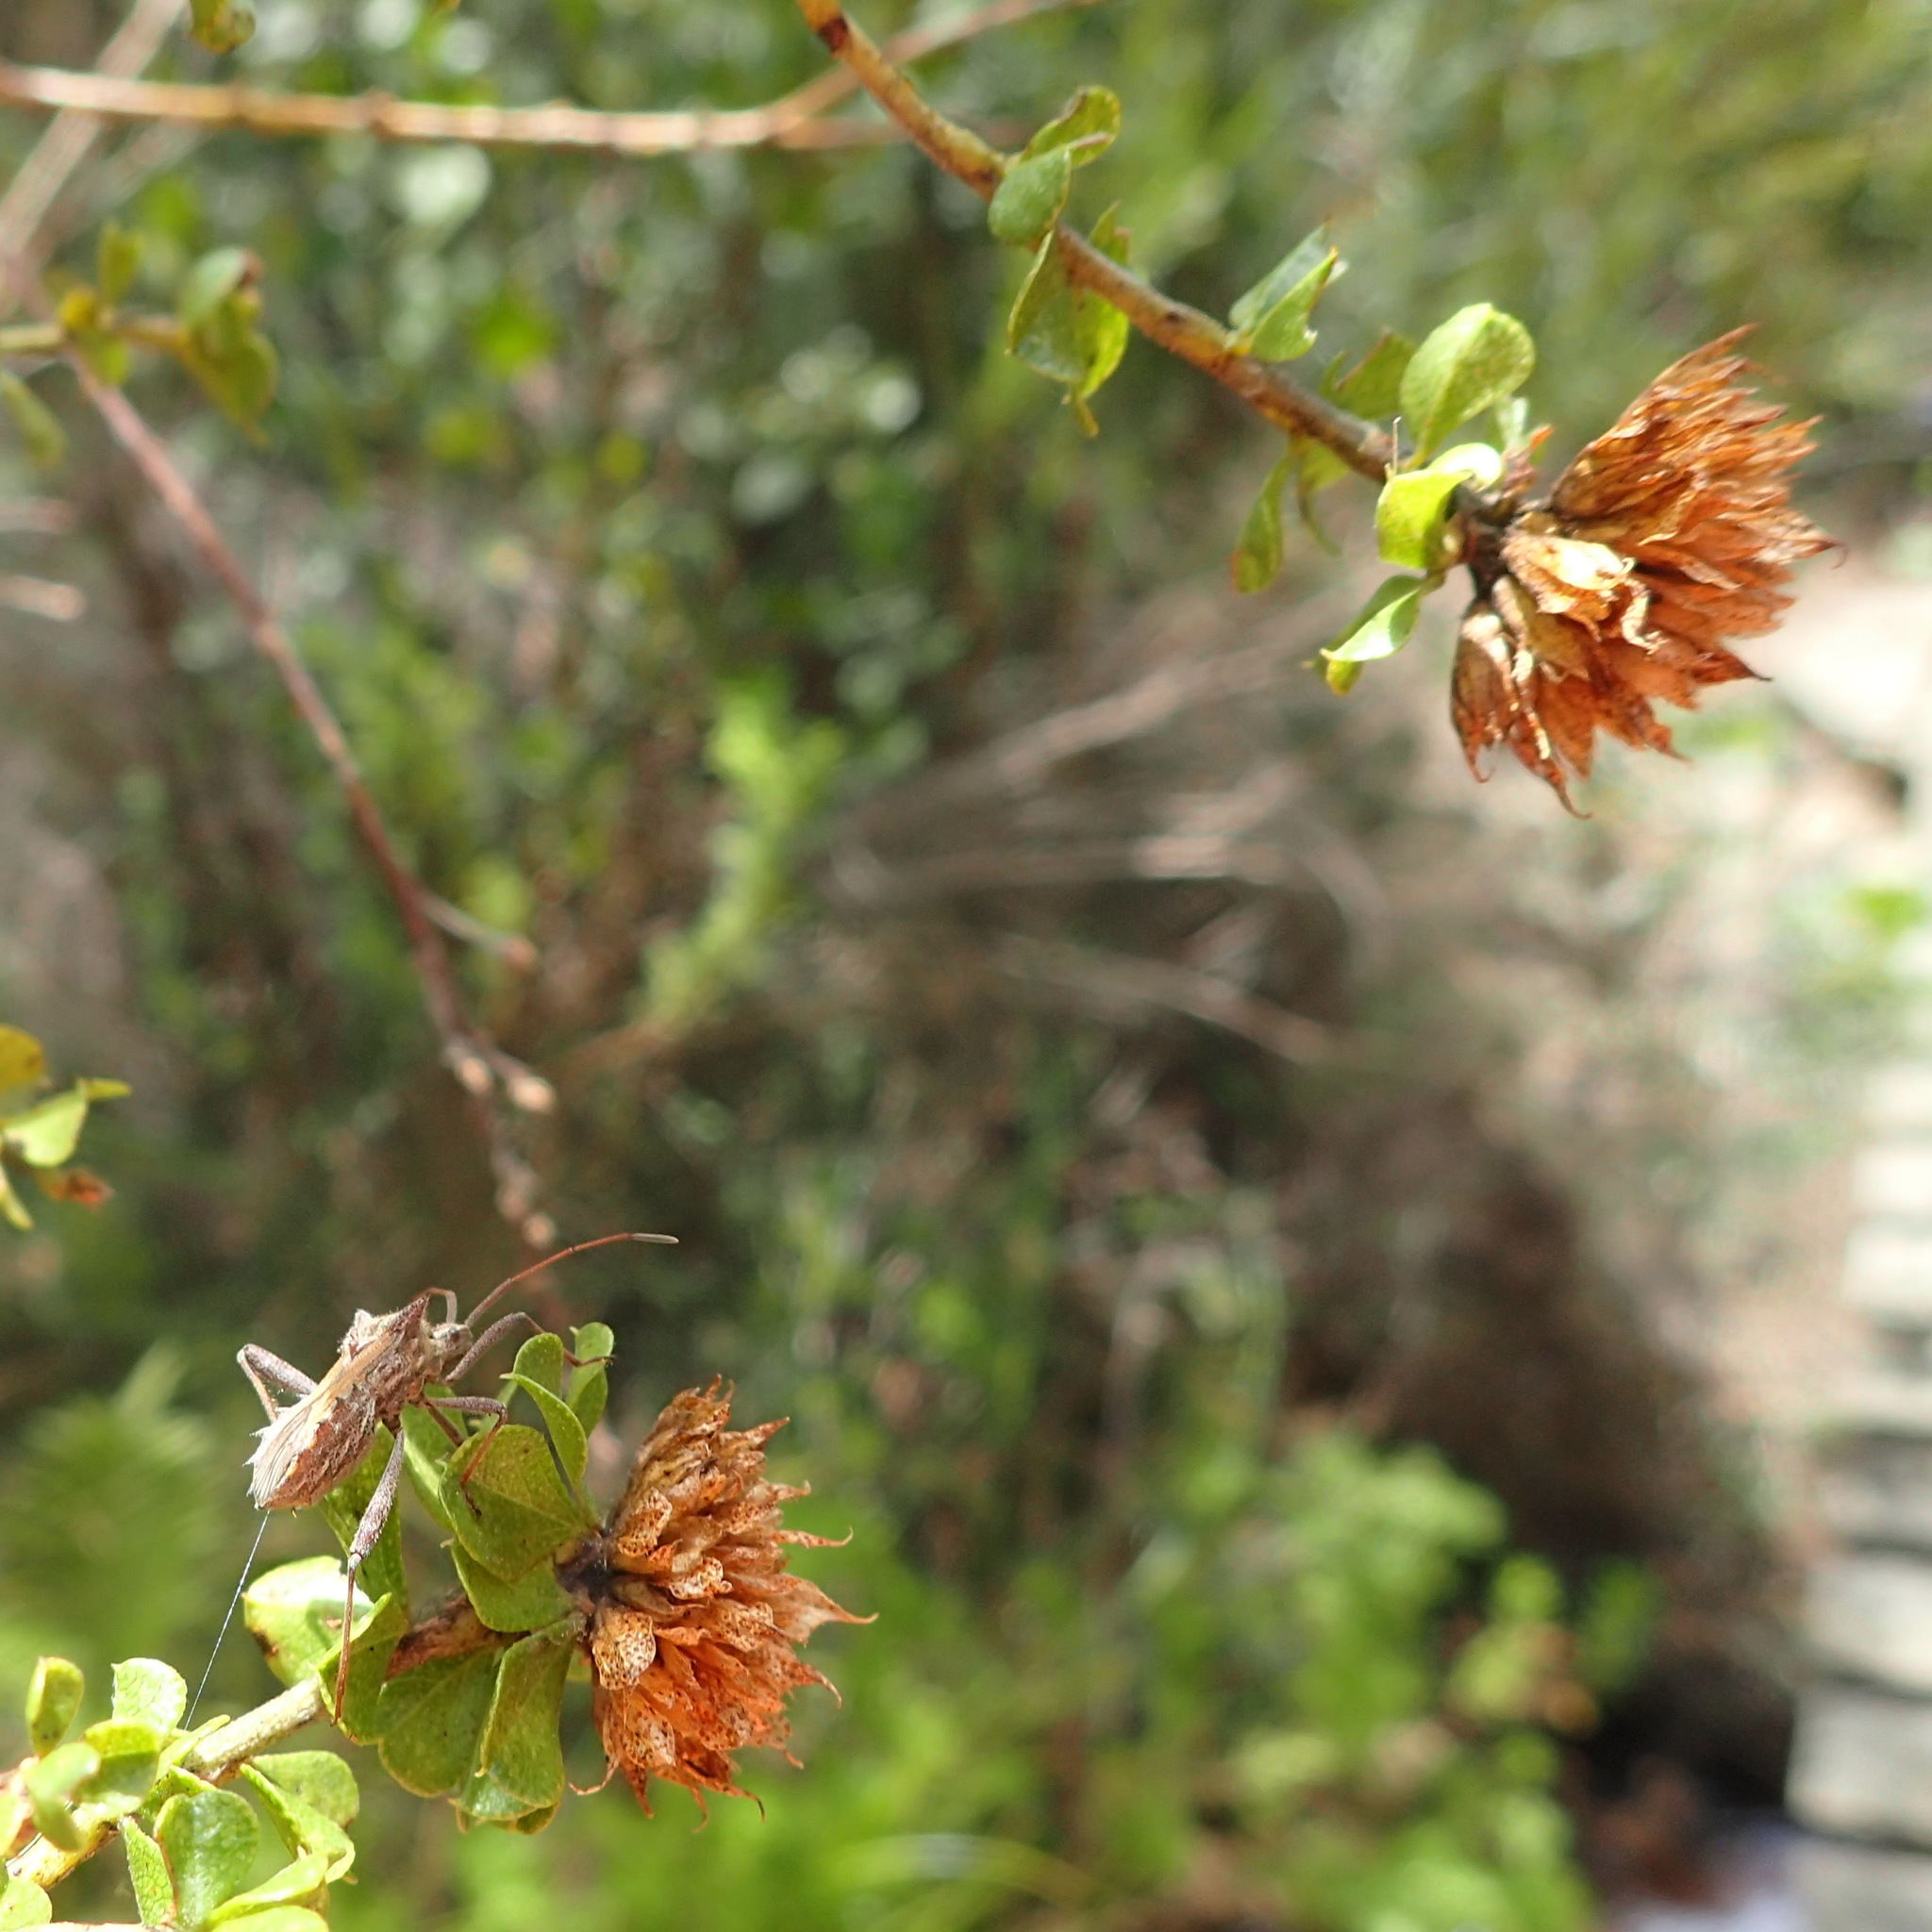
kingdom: Plantae
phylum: Tracheophyta
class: Magnoliopsida
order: Fabales
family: Fabaceae
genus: Psoralea
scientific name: Psoralea acuminata
